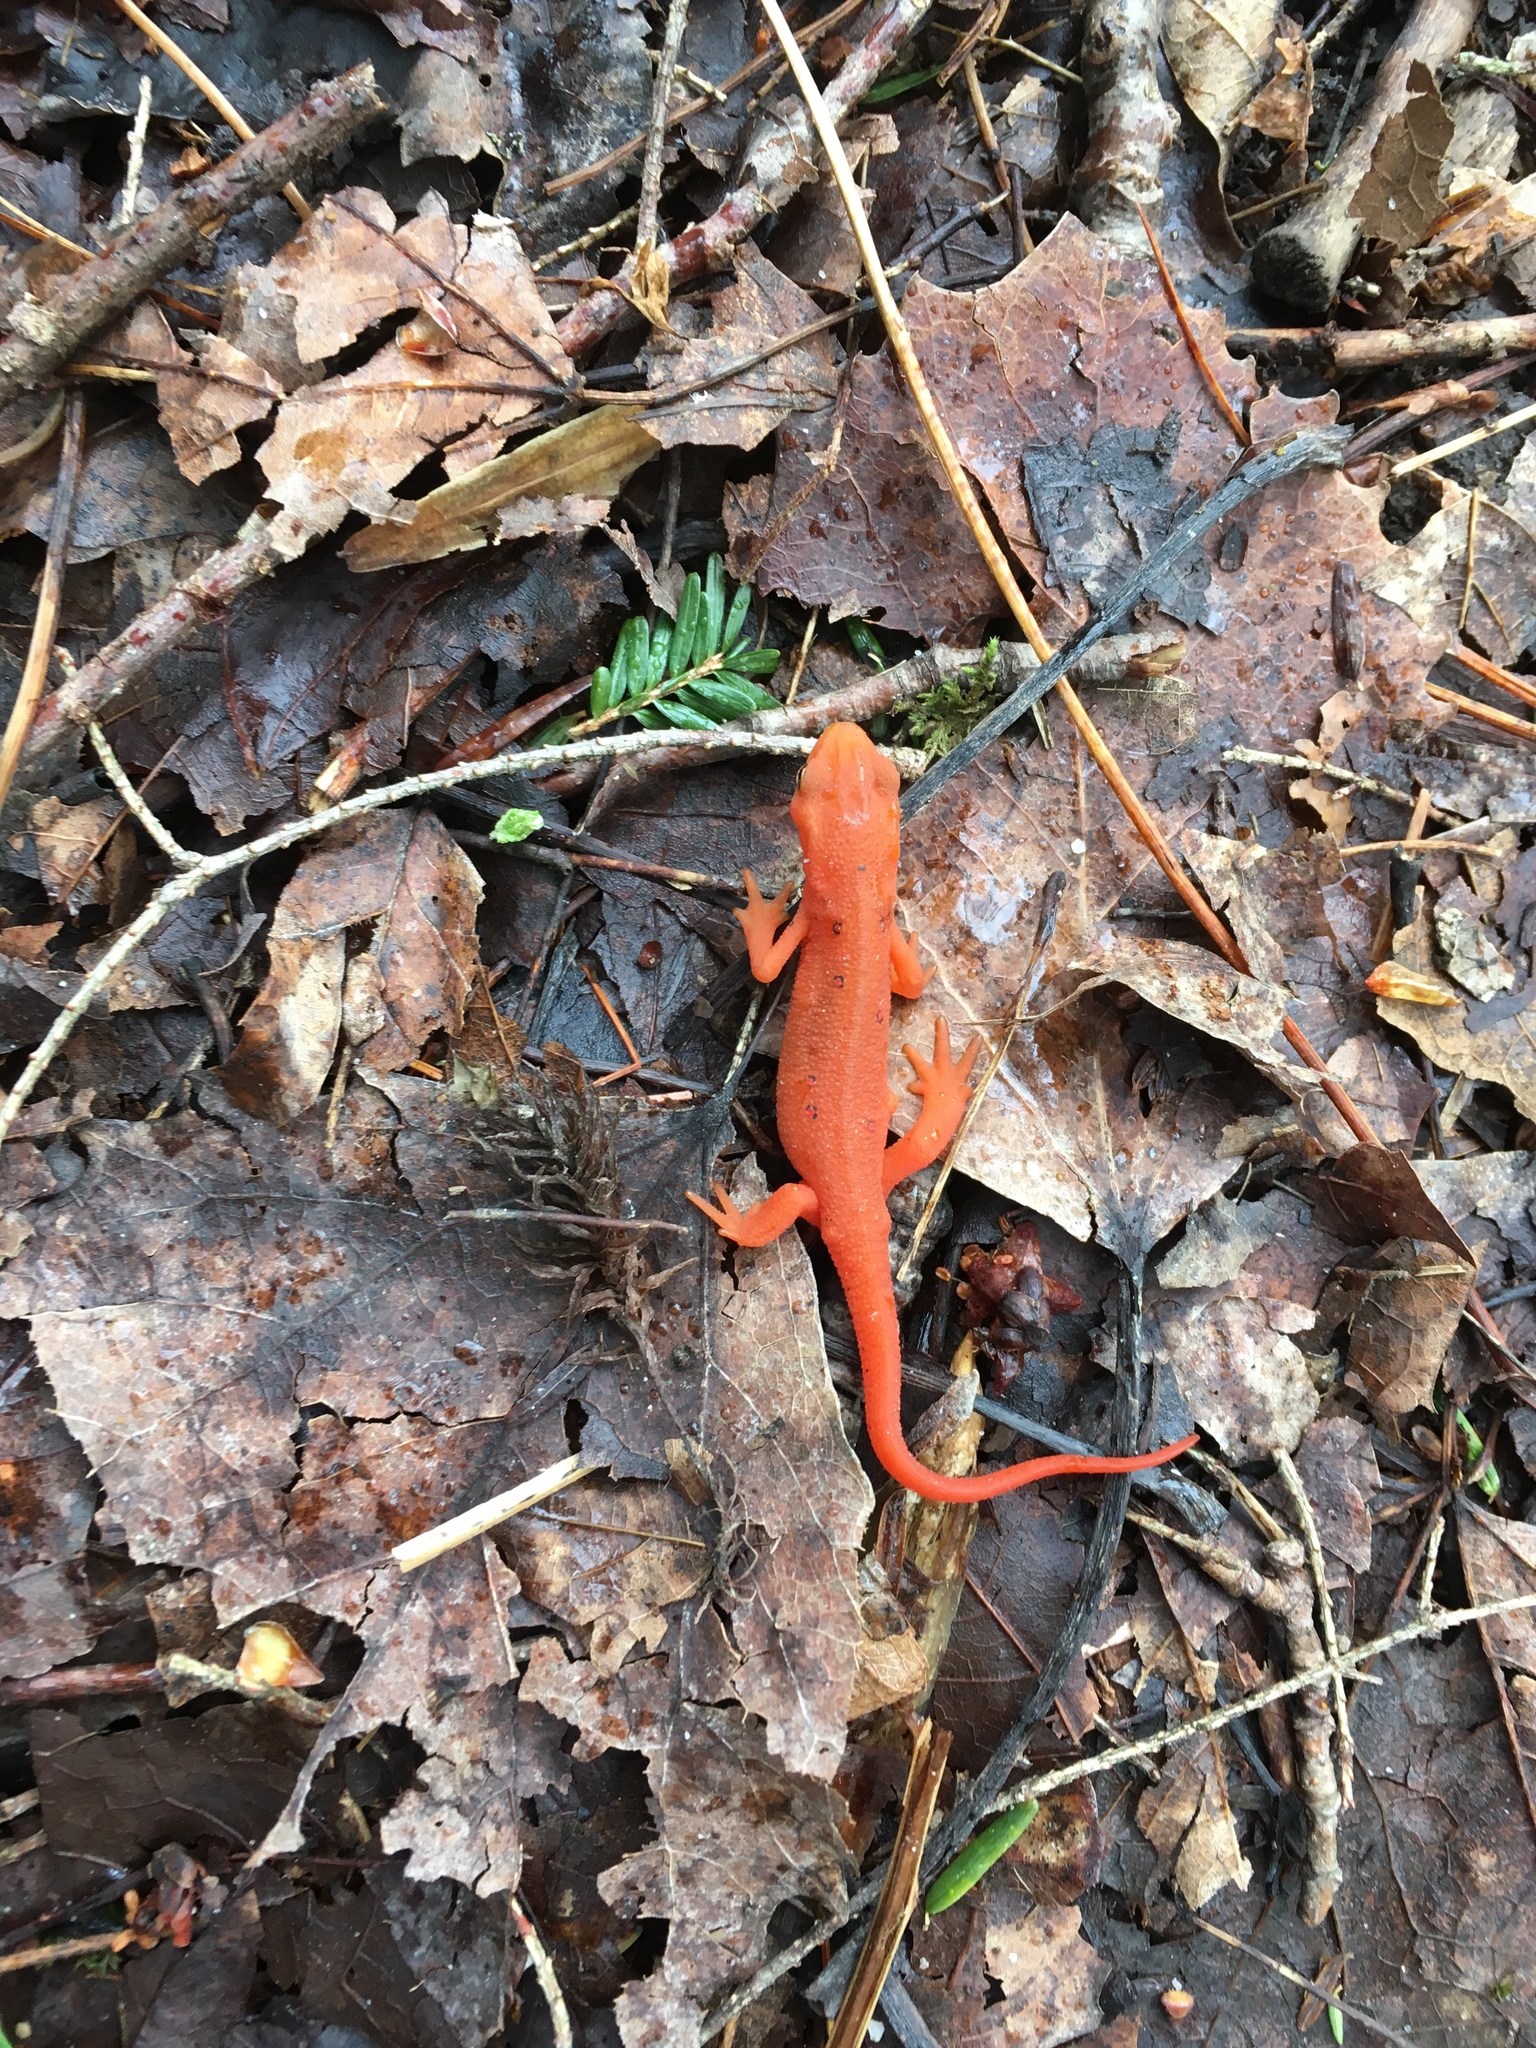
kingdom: Animalia
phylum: Chordata
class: Amphibia
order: Caudata
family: Salamandridae
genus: Notophthalmus
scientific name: Notophthalmus viridescens
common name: Eastern newt
